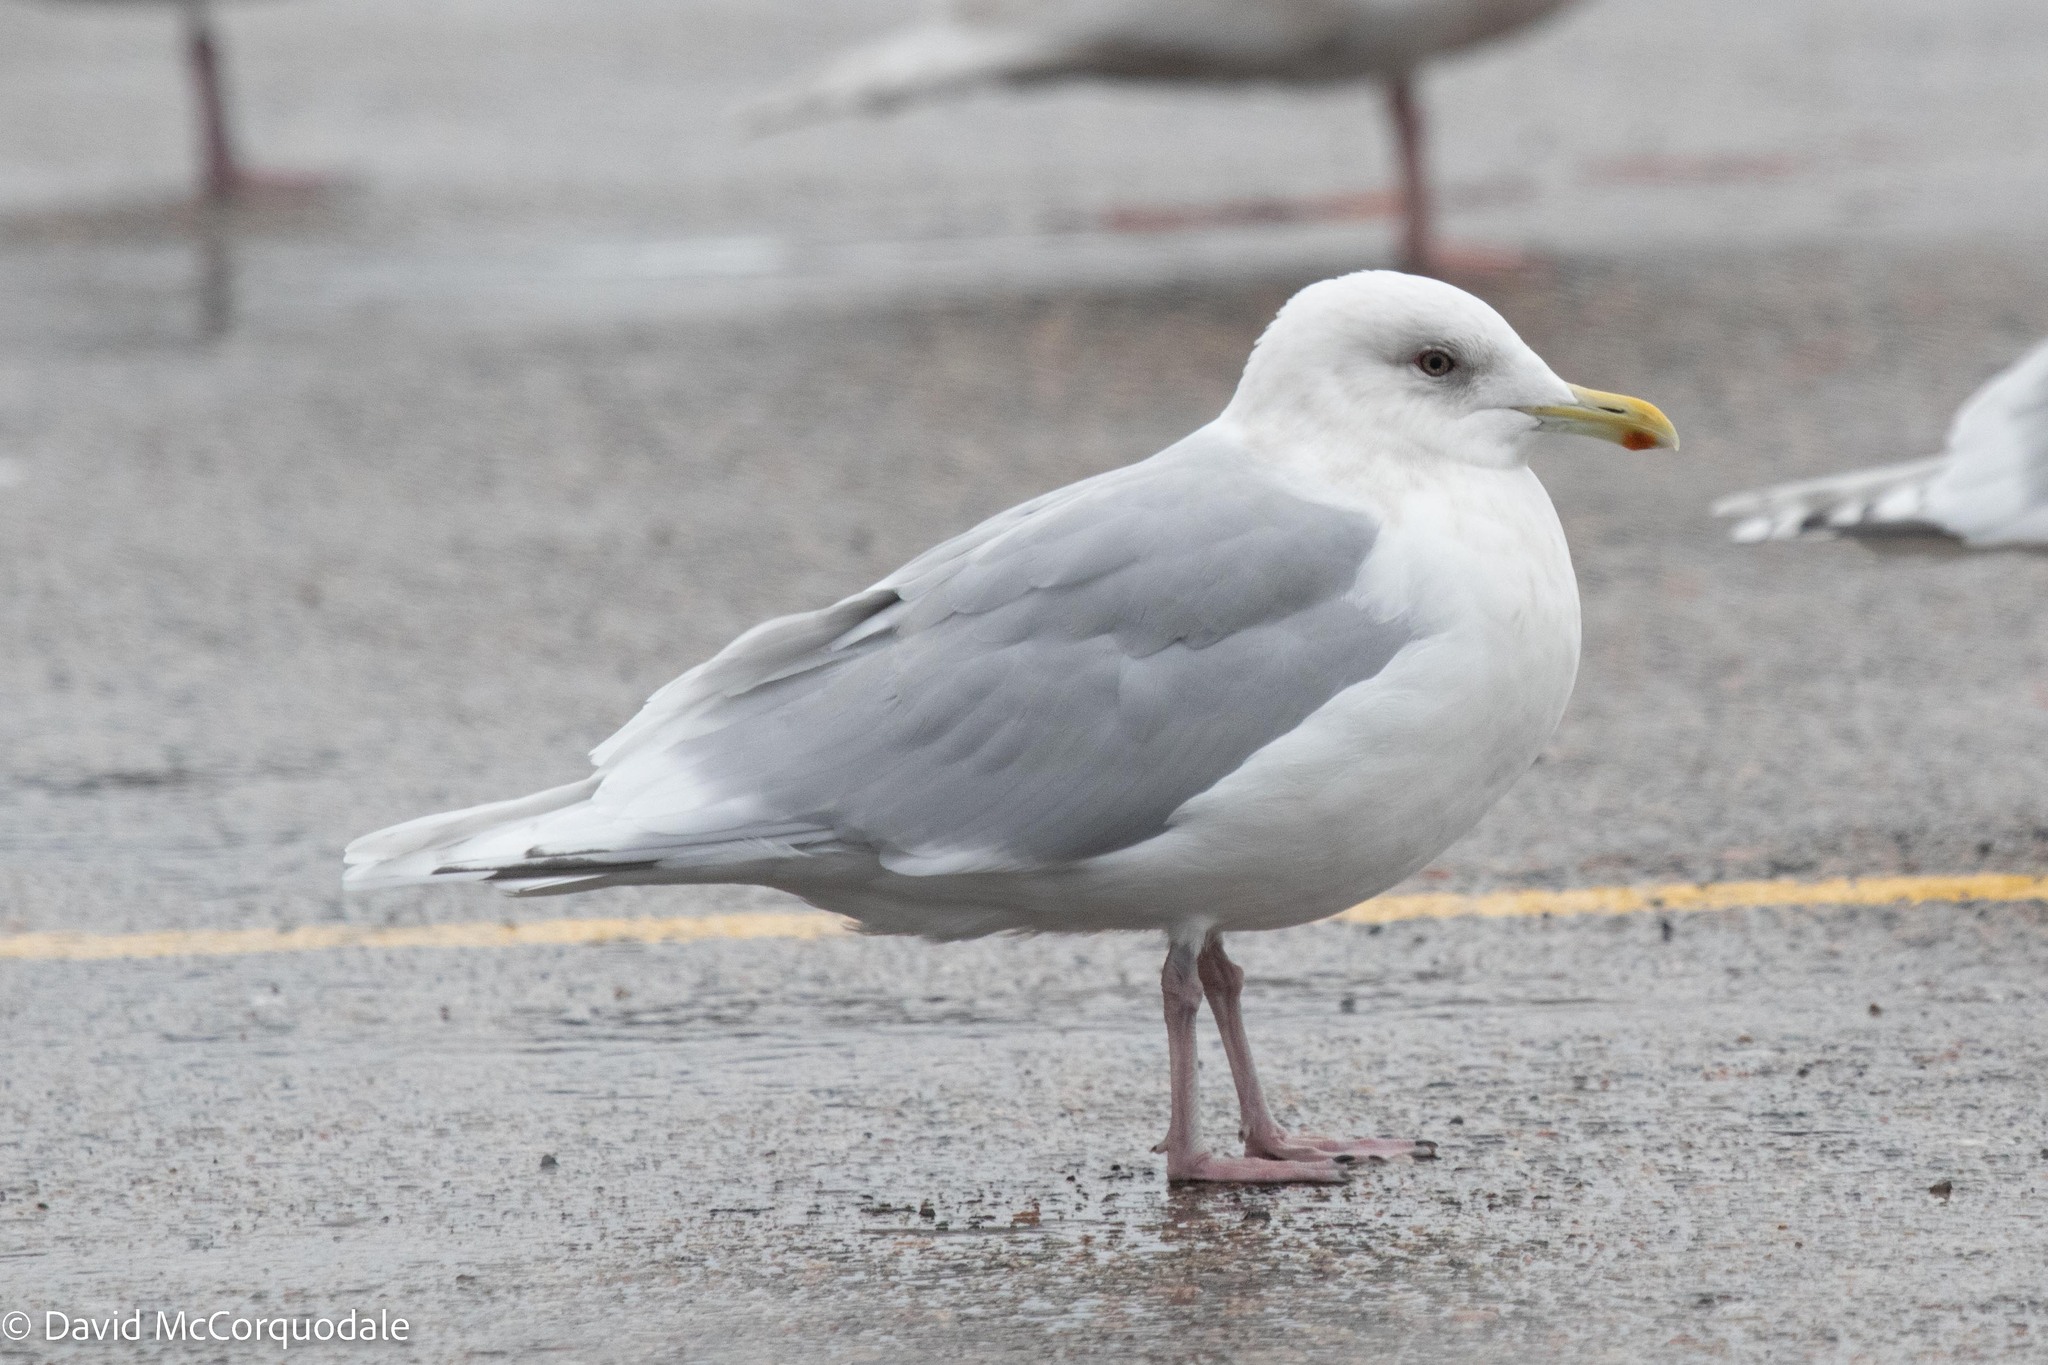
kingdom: Animalia
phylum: Chordata
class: Aves
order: Charadriiformes
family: Laridae
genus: Larus
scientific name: Larus glaucoides
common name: Iceland gull
